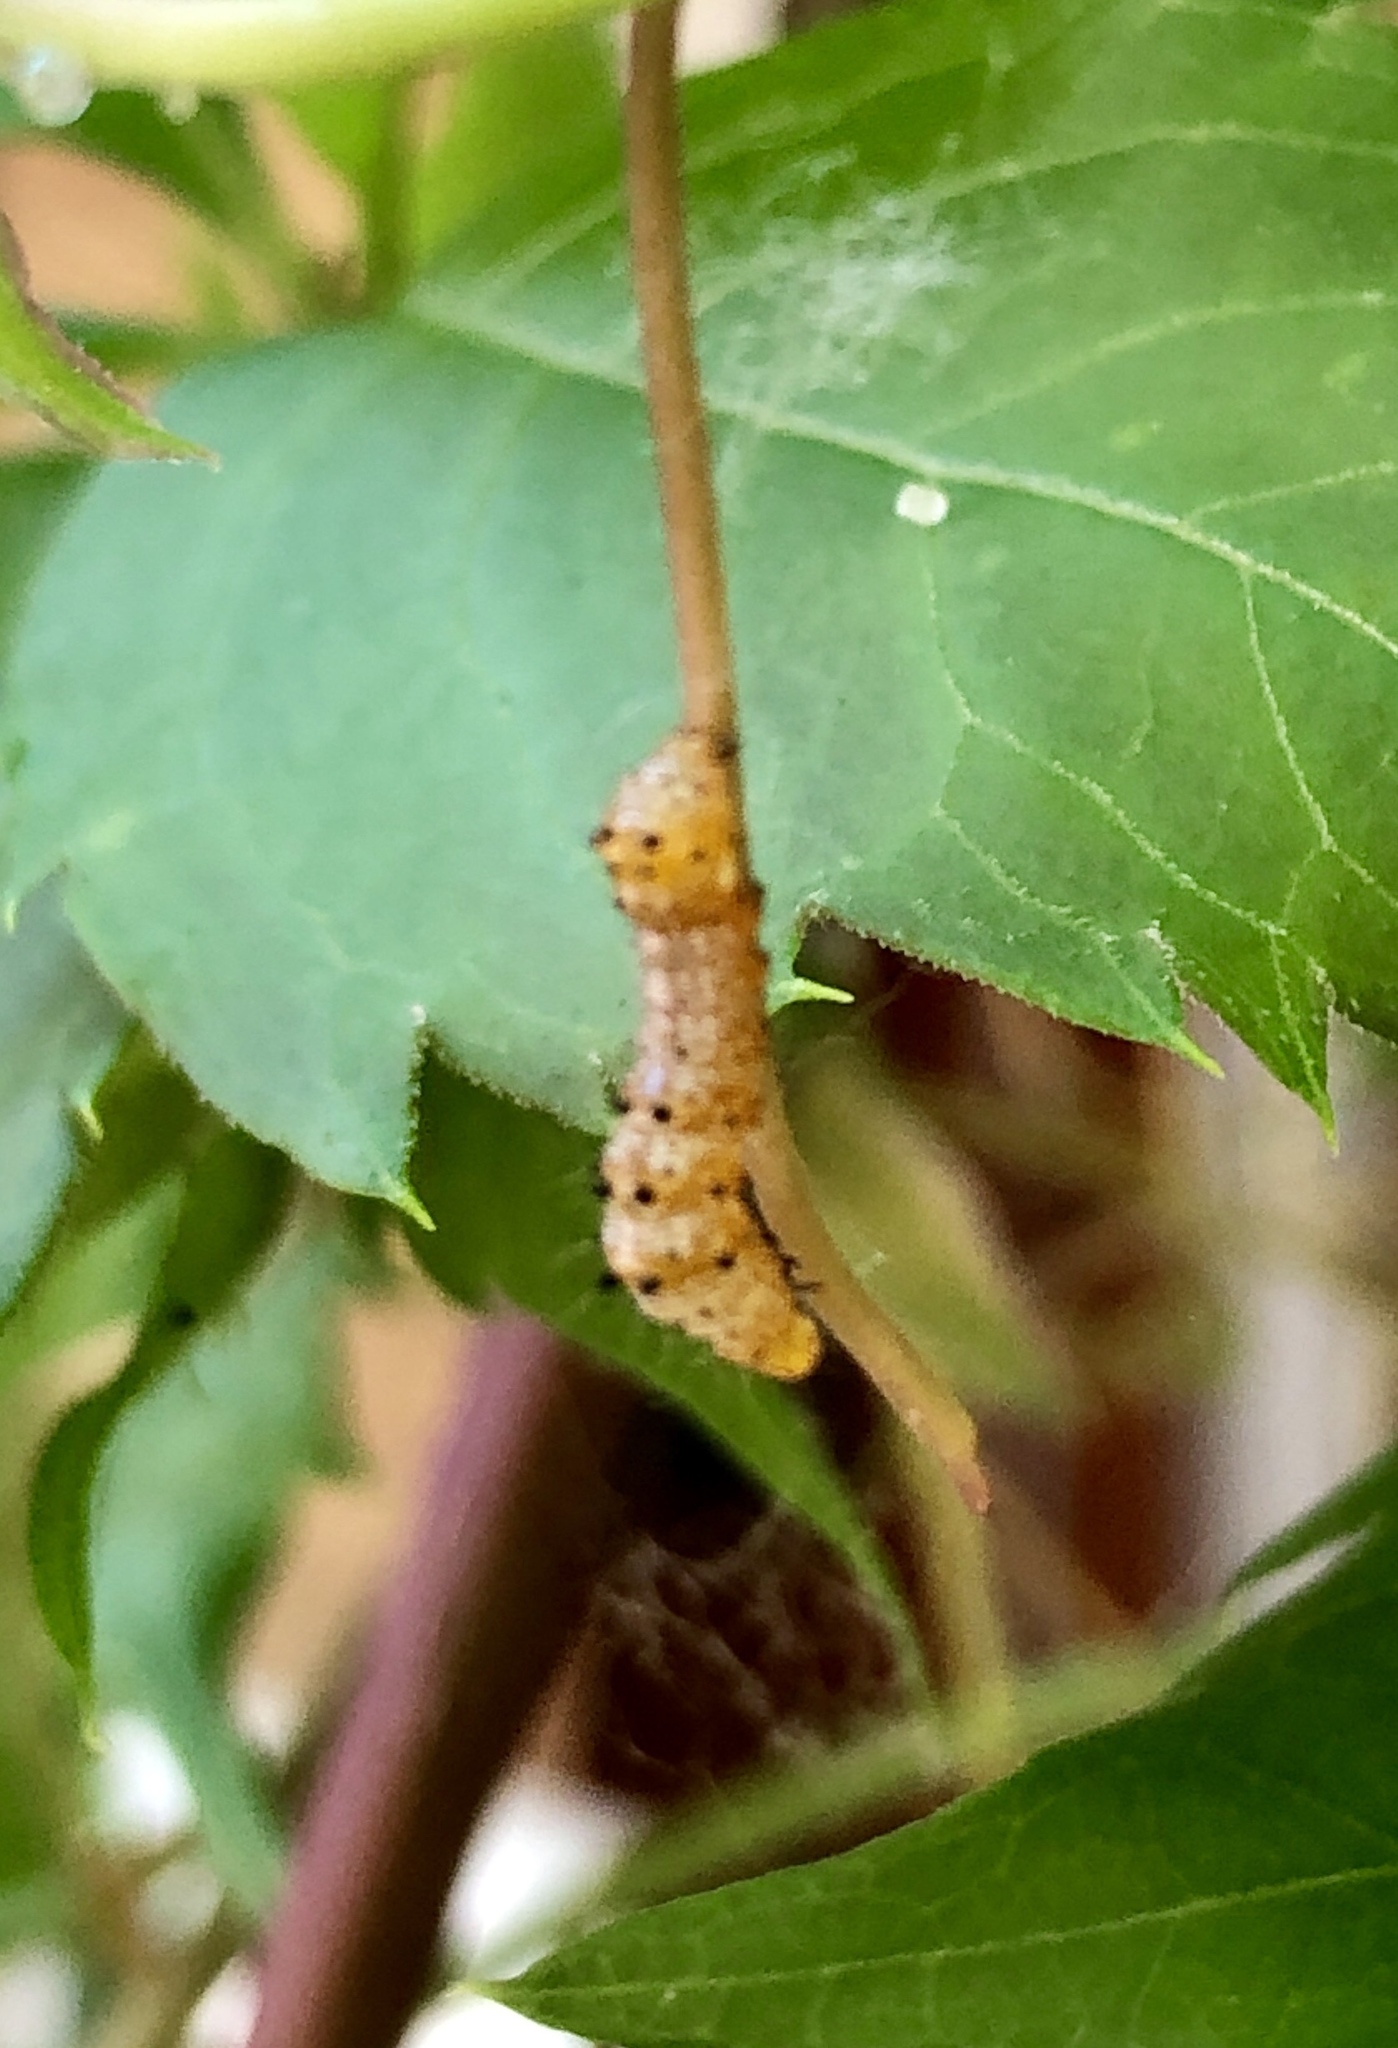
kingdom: Animalia
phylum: Arthropoda
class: Insecta
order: Lepidoptera
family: Noctuidae
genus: Alypia
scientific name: Alypia octomaculata
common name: Eight-spotted forester
